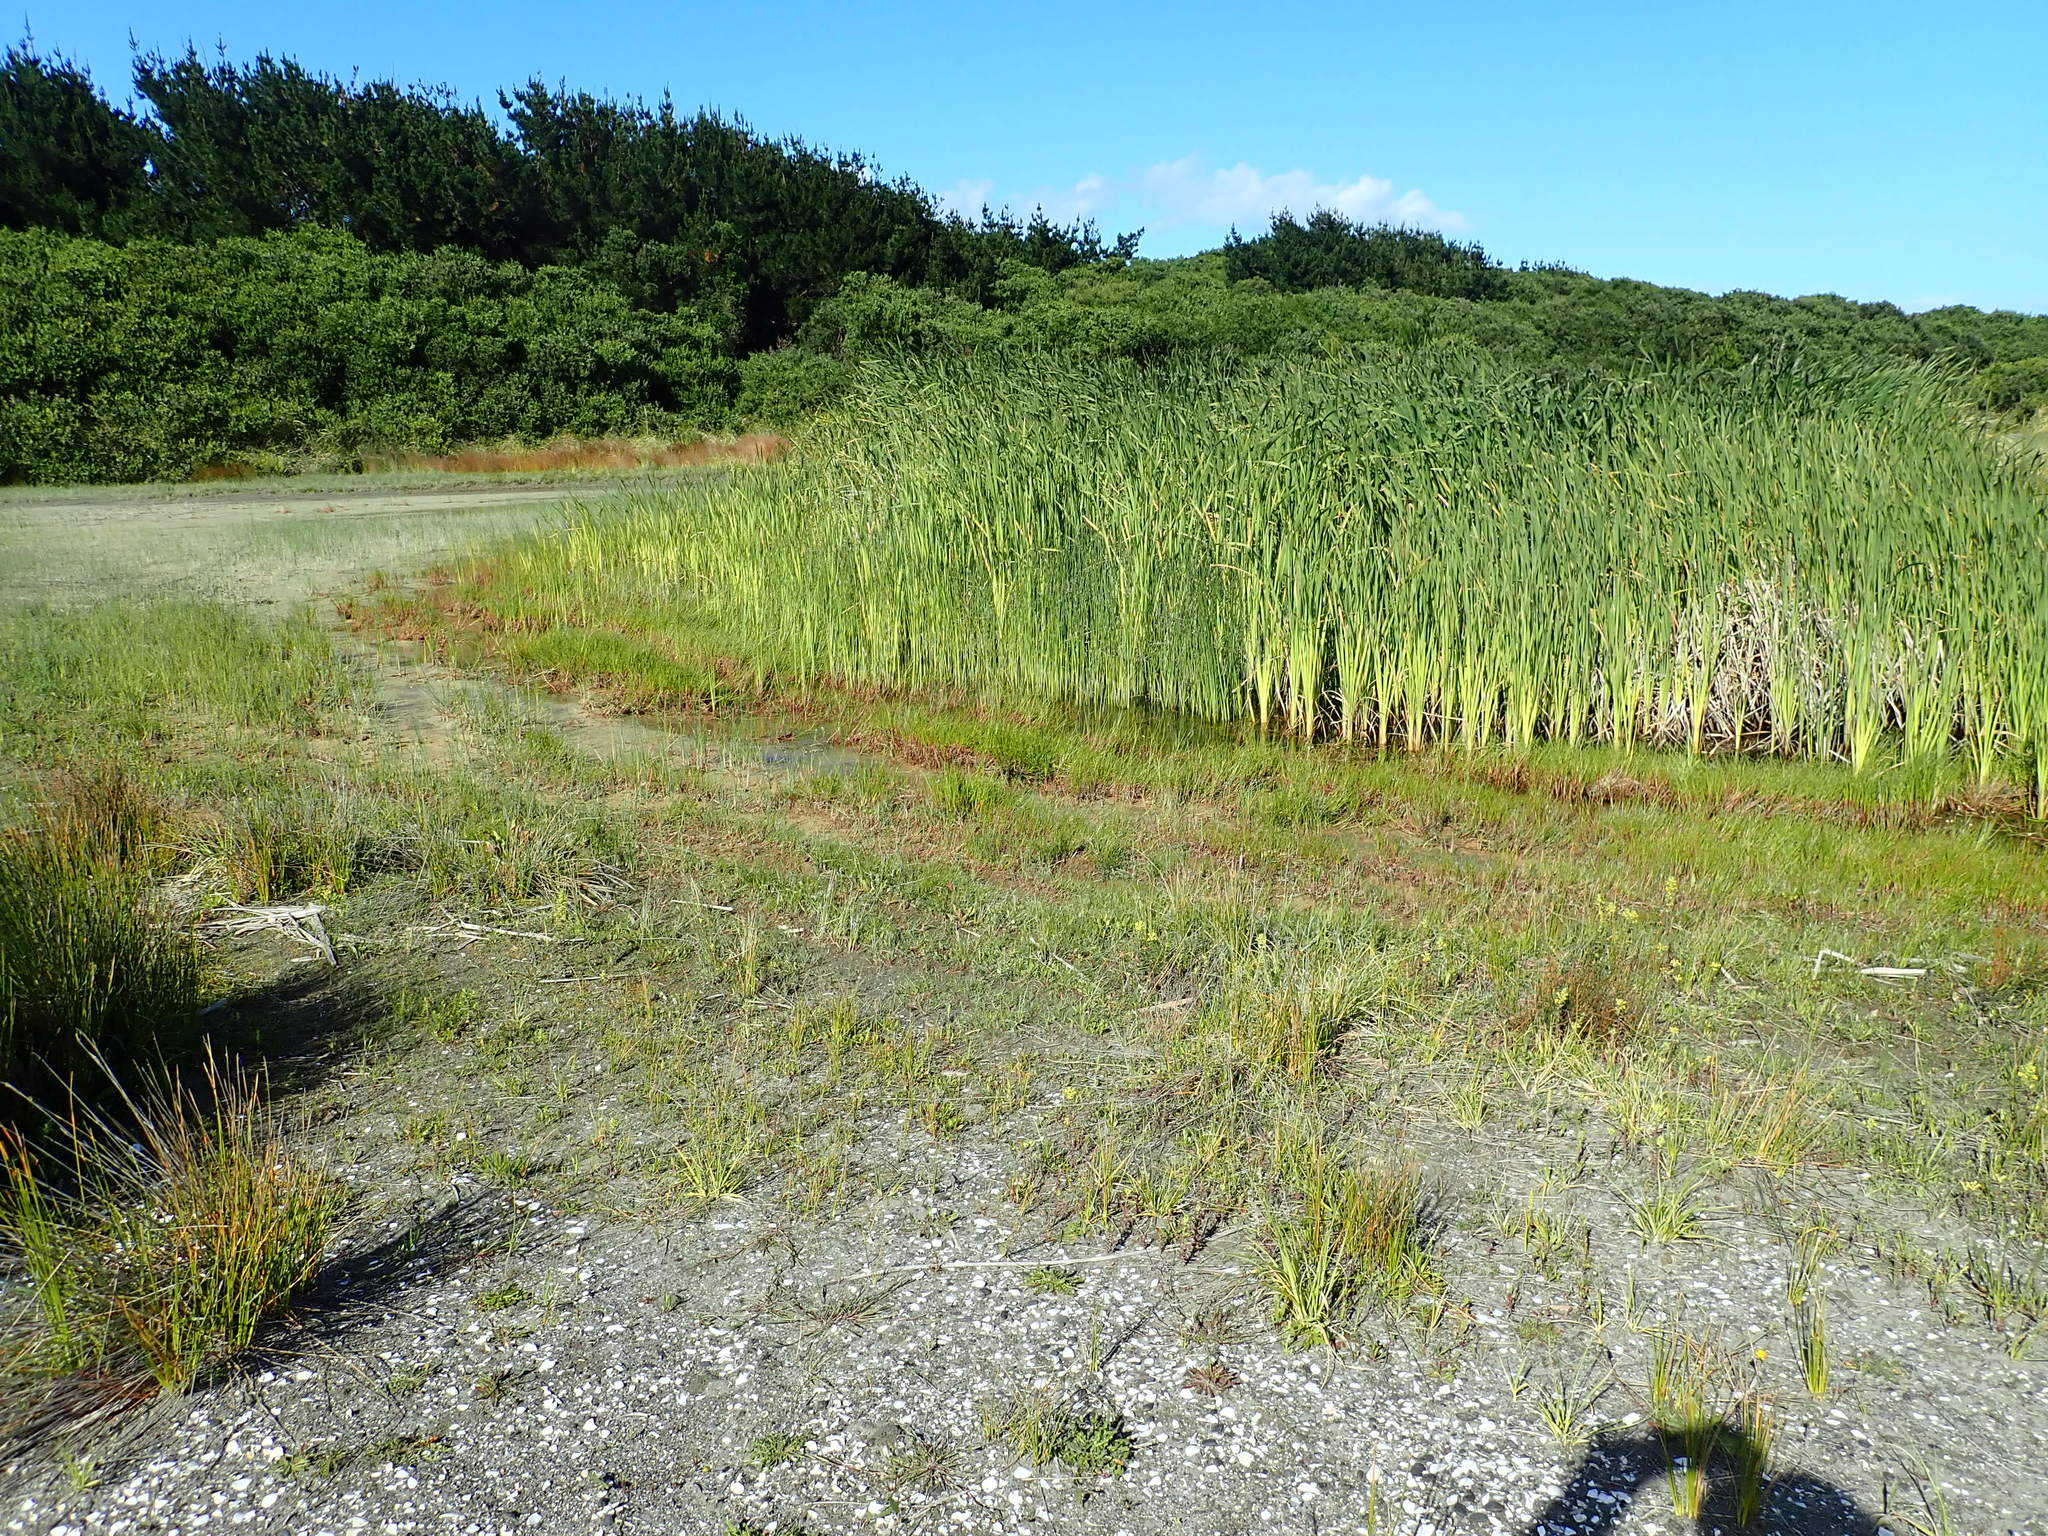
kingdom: Plantae
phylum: Tracheophyta
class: Liliopsida
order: Poales
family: Cyperaceae
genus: Schoenoplectus
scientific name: Schoenoplectus tabernaemontani
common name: Grey club-rush
